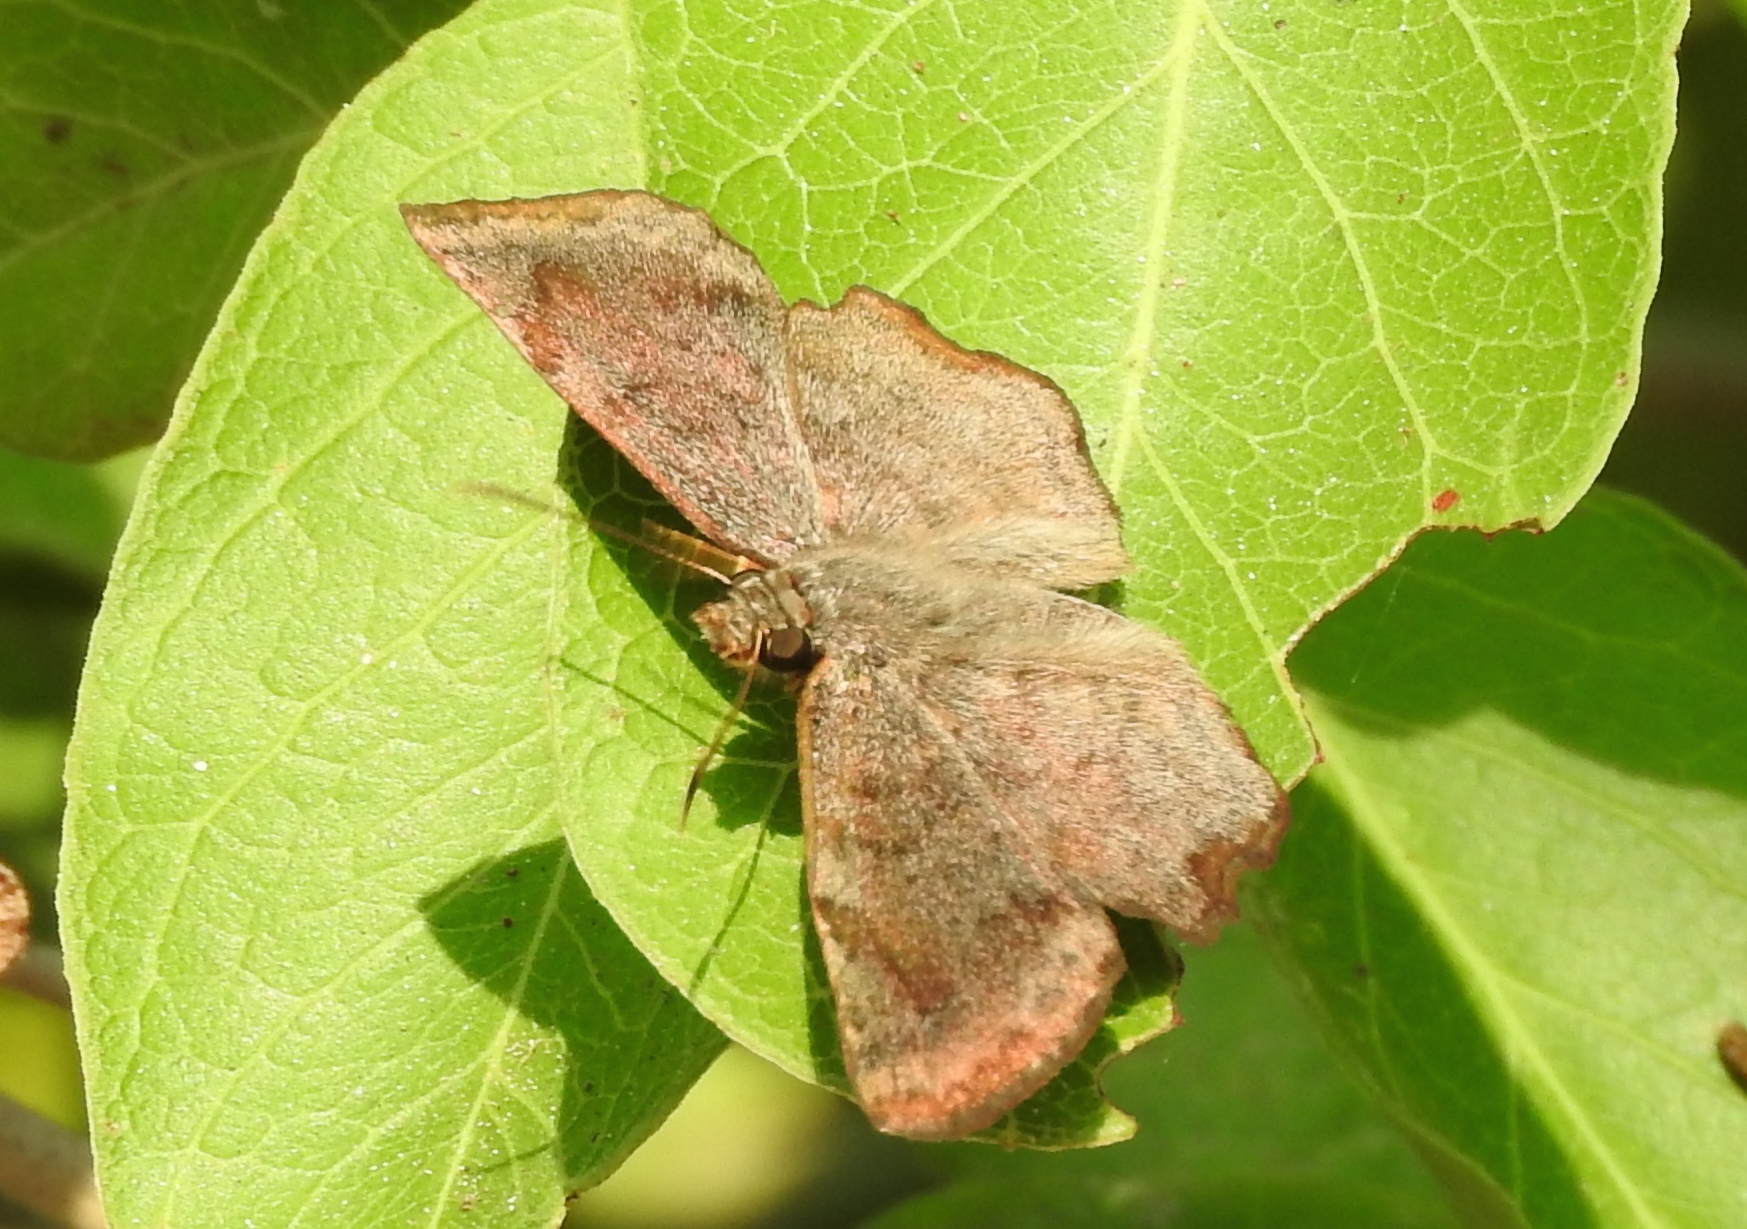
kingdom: Animalia
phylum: Arthropoda
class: Insecta
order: Lepidoptera
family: Hesperiidae
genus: Antigonus
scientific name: Antigonus erosus
